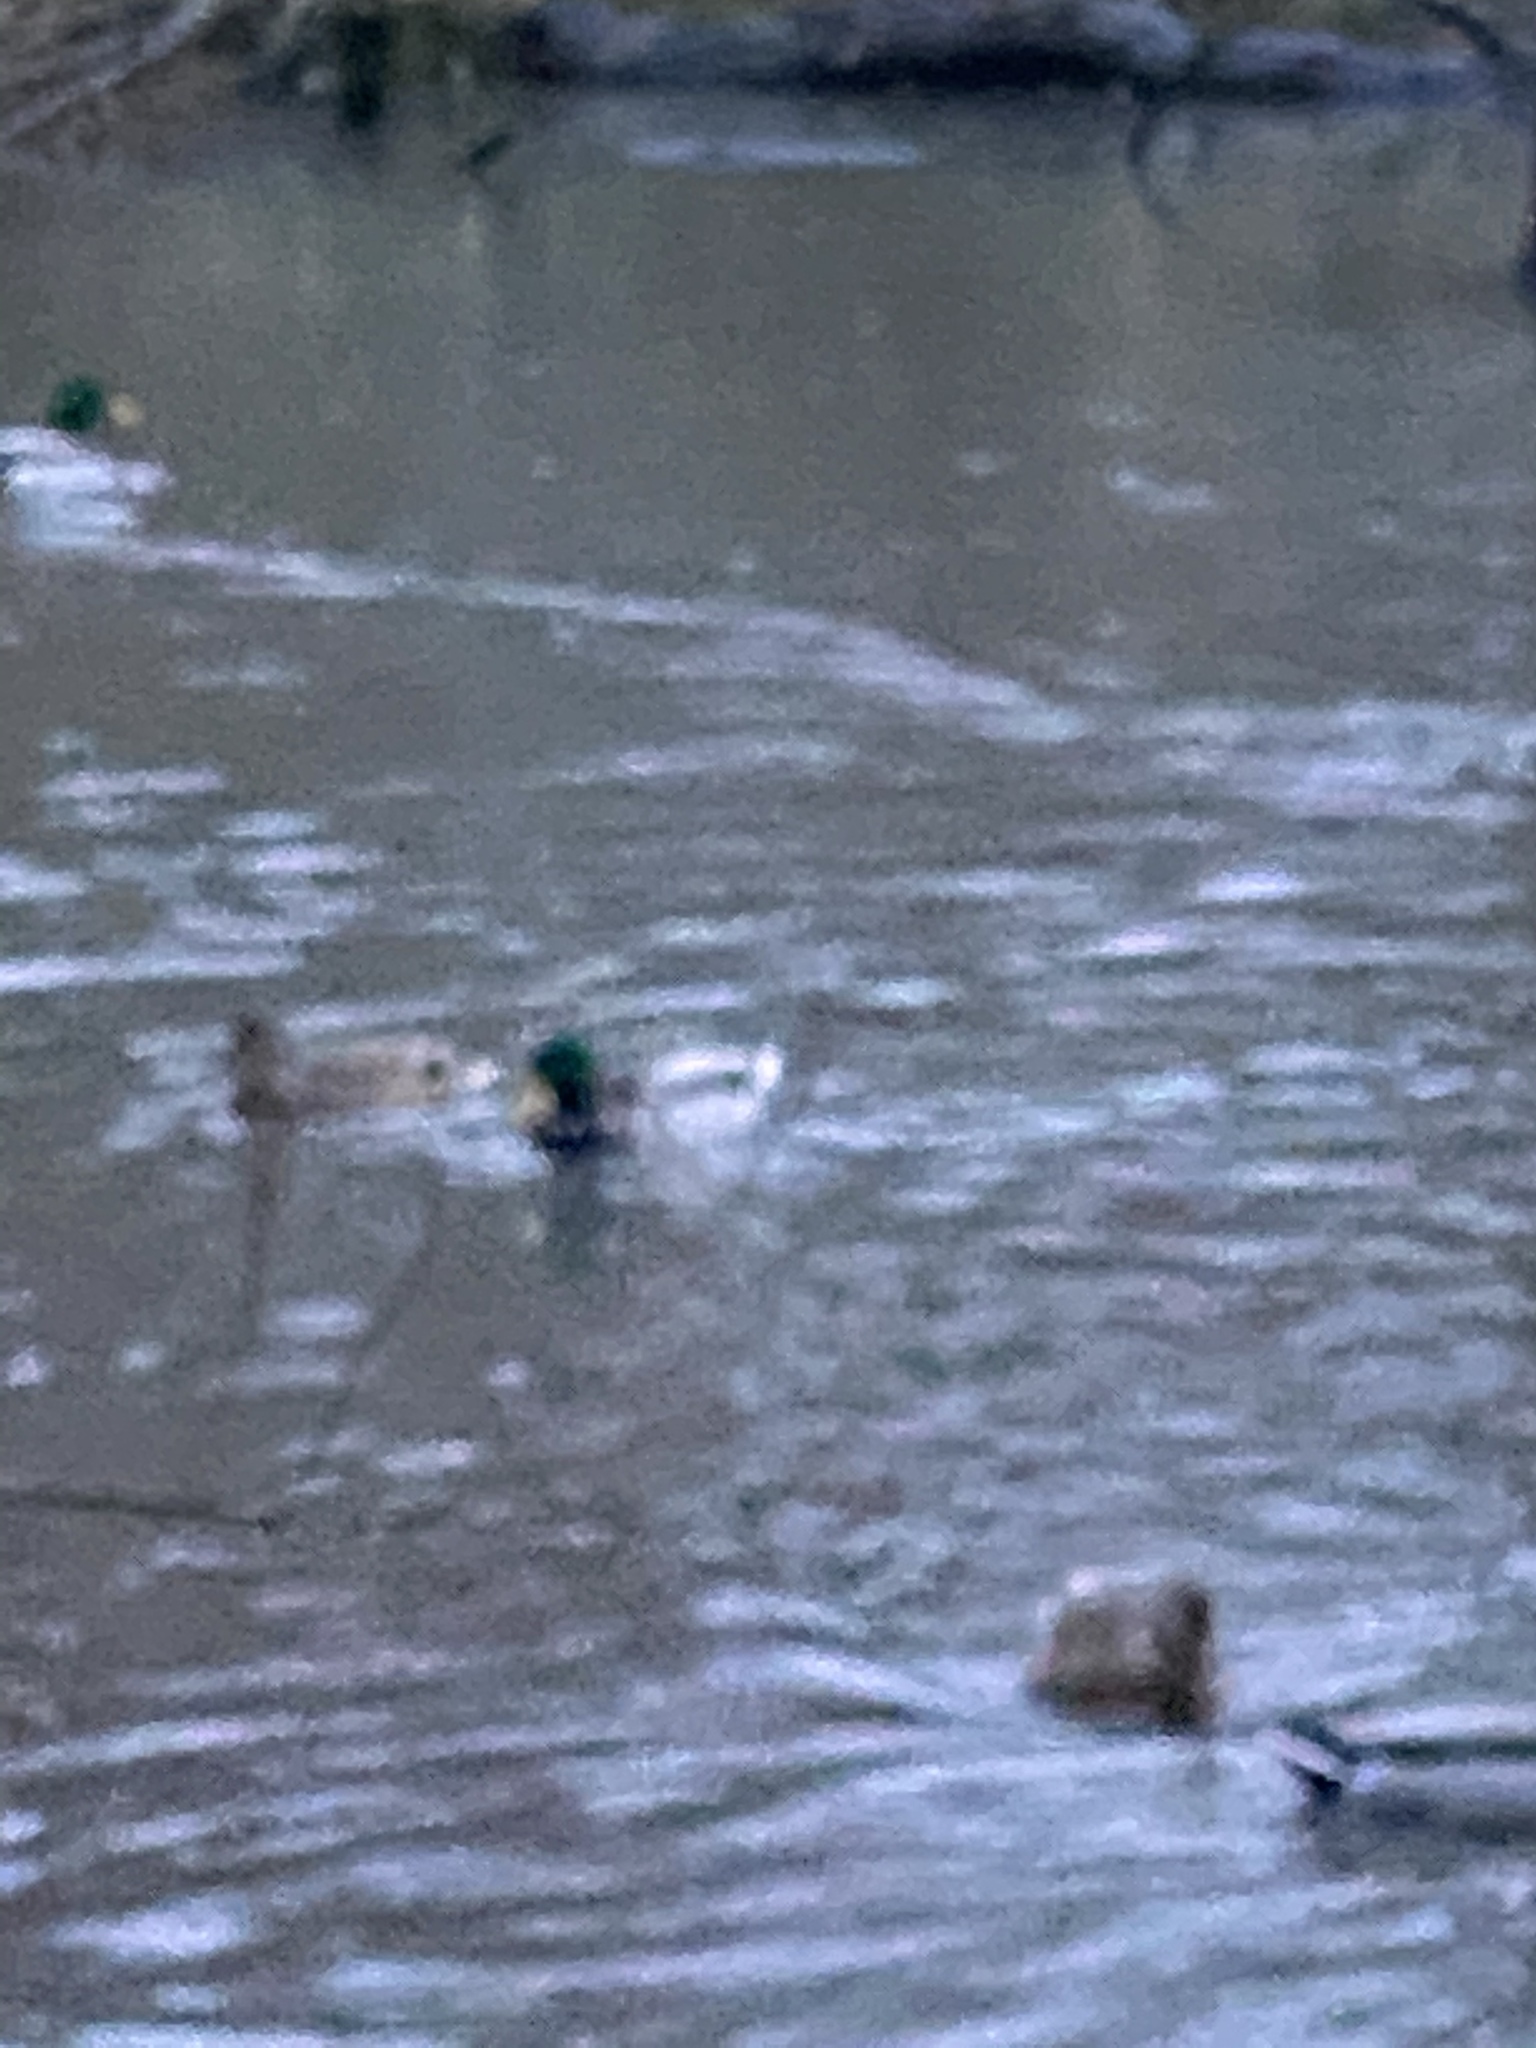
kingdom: Animalia
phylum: Chordata
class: Aves
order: Anseriformes
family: Anatidae
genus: Anas
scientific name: Anas platyrhynchos
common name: Mallard
